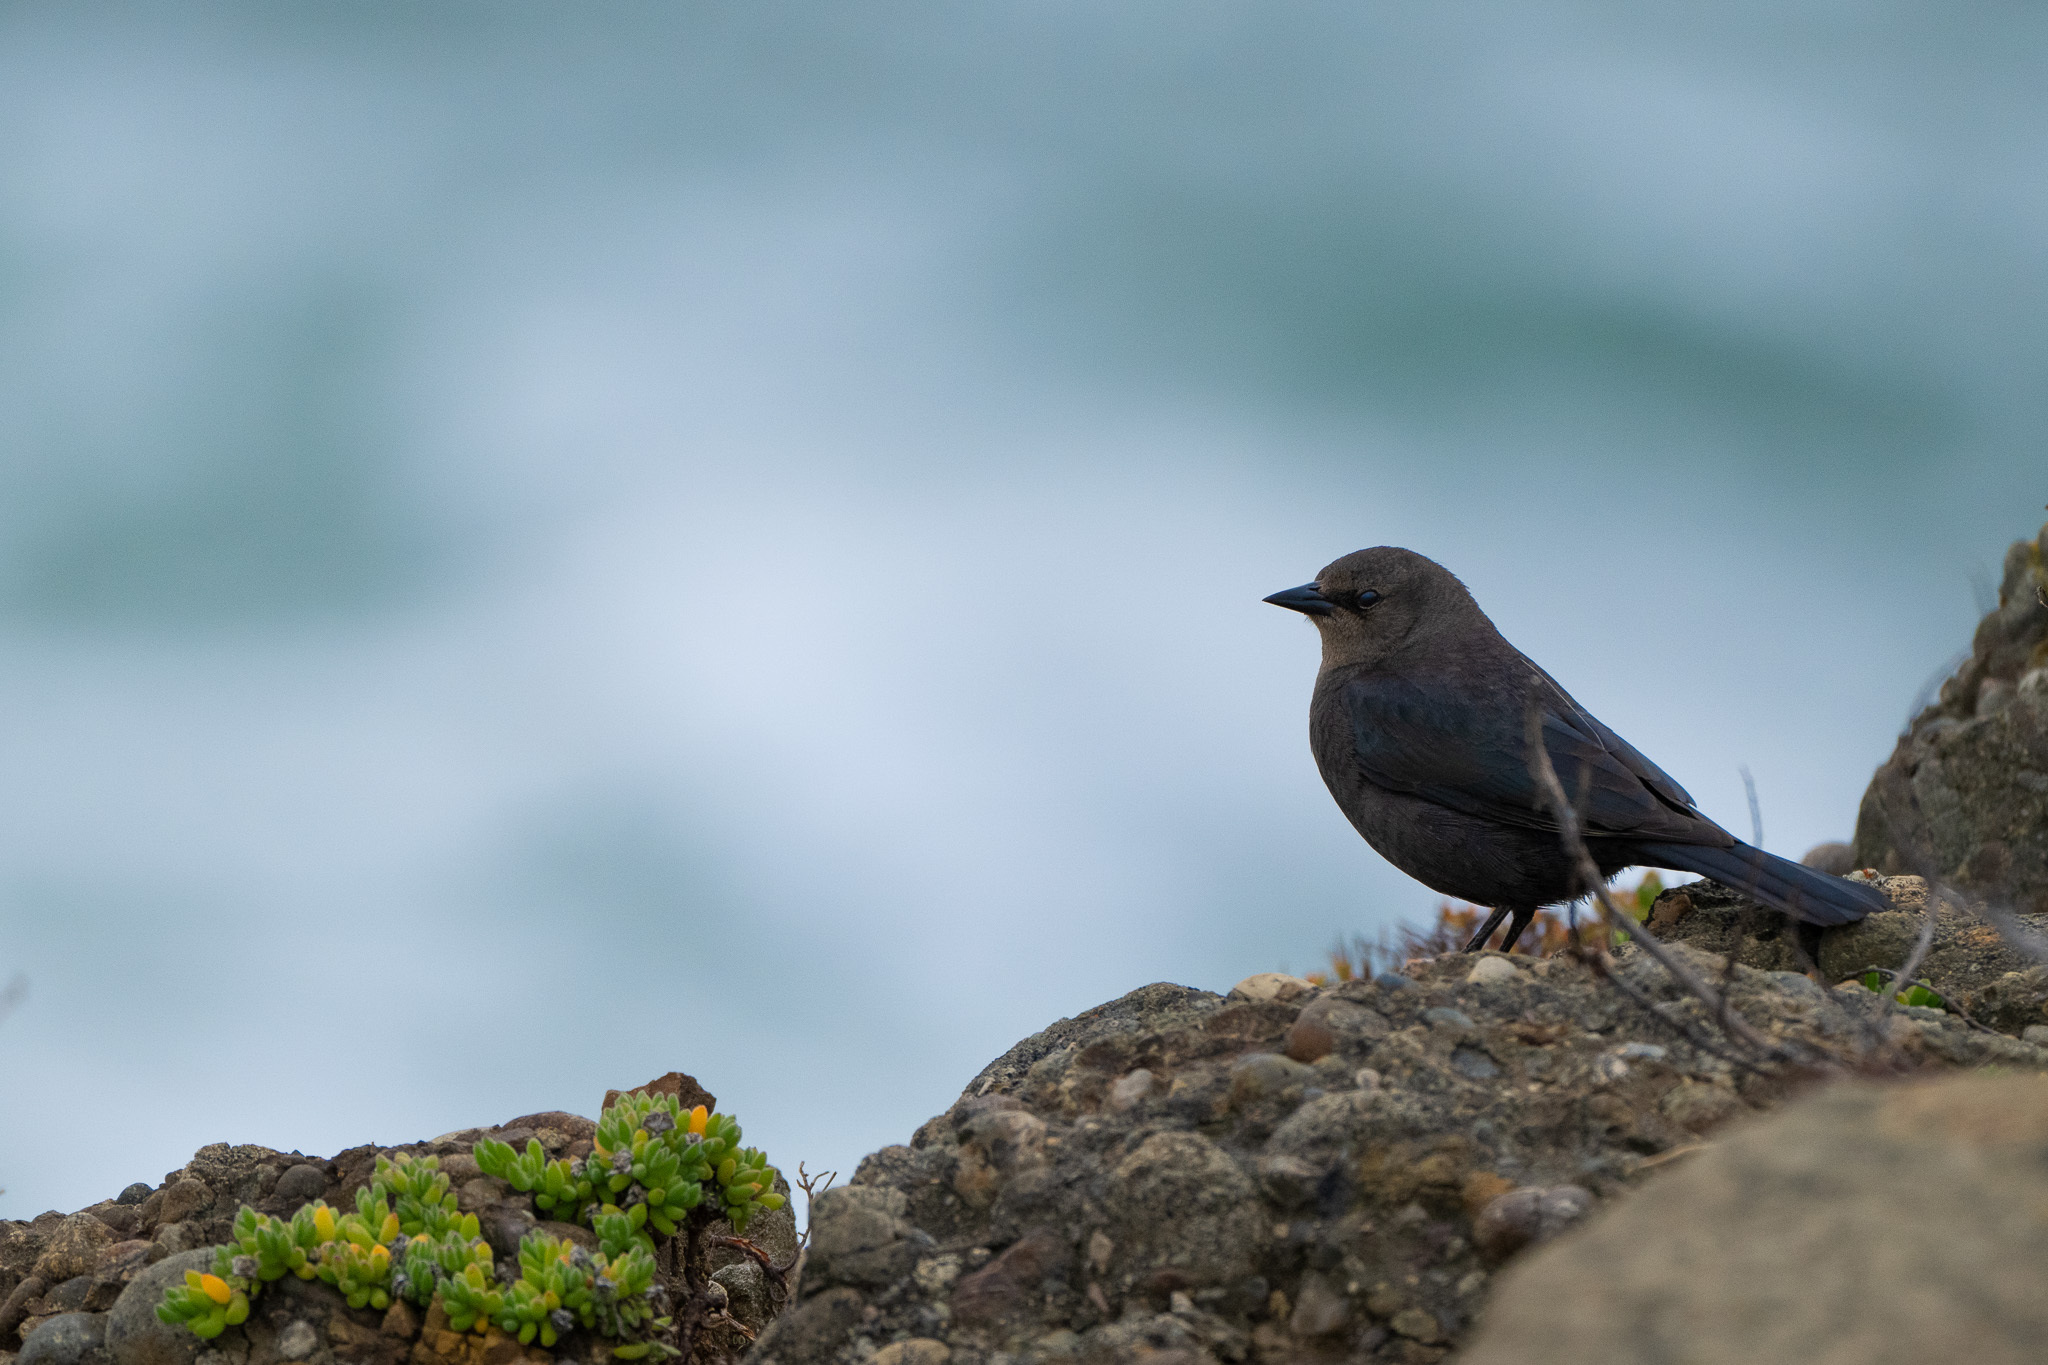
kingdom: Animalia
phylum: Chordata
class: Aves
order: Passeriformes
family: Icteridae
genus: Euphagus
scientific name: Euphagus cyanocephalus
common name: Brewer's blackbird
